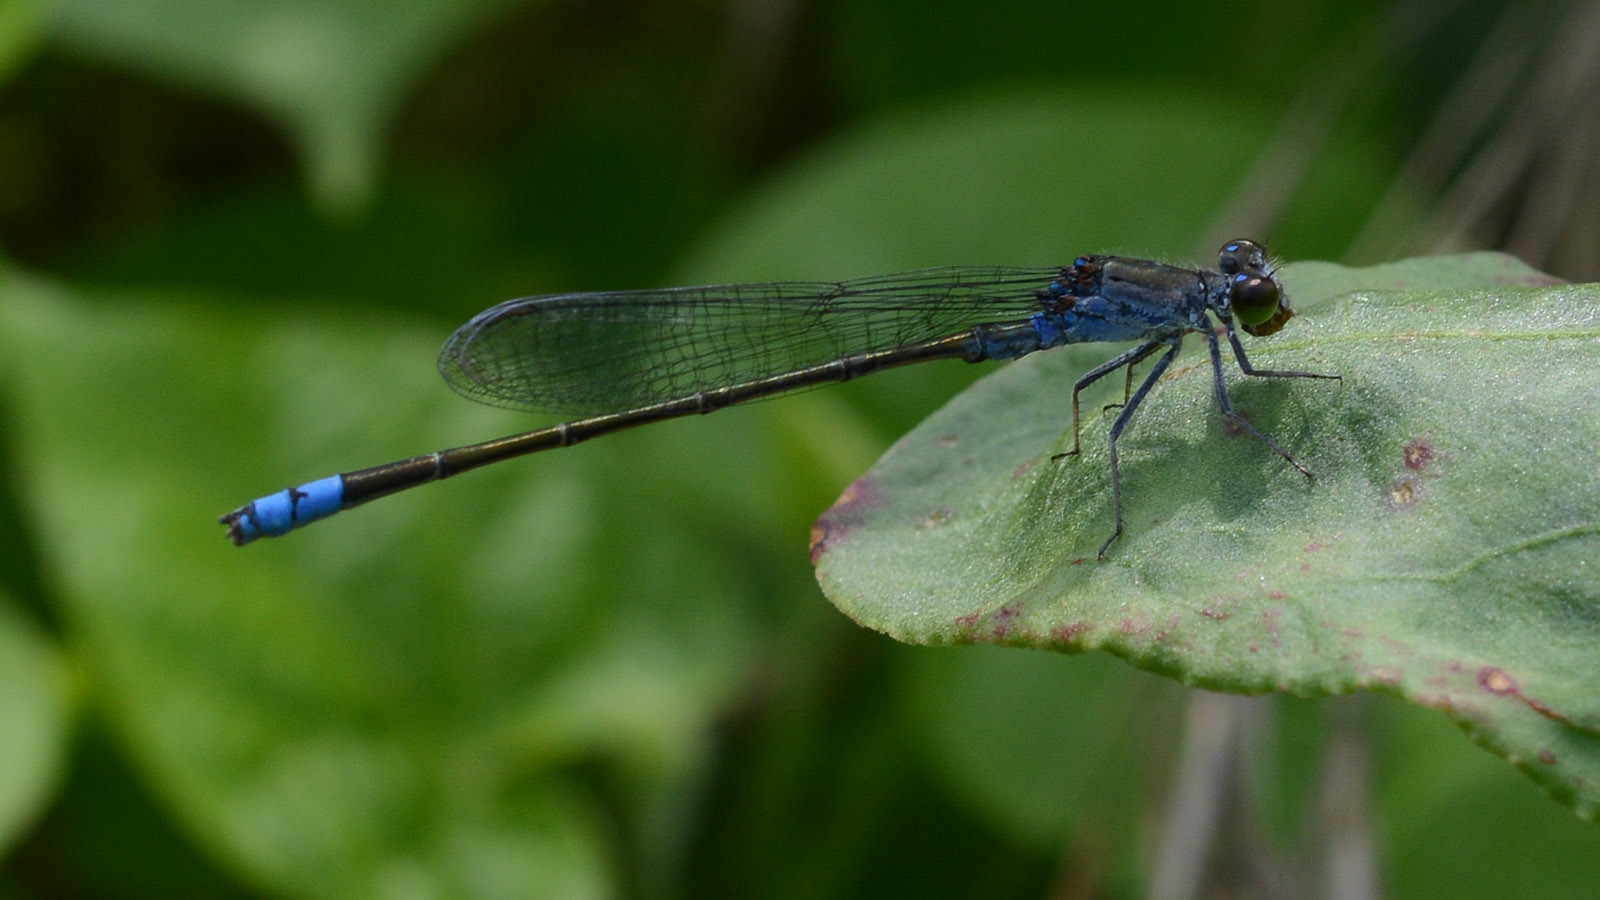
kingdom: Animalia
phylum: Arthropoda
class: Insecta
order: Odonata
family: Coenagrionidae
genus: Paracercion
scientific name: Paracercion v-nigrum
